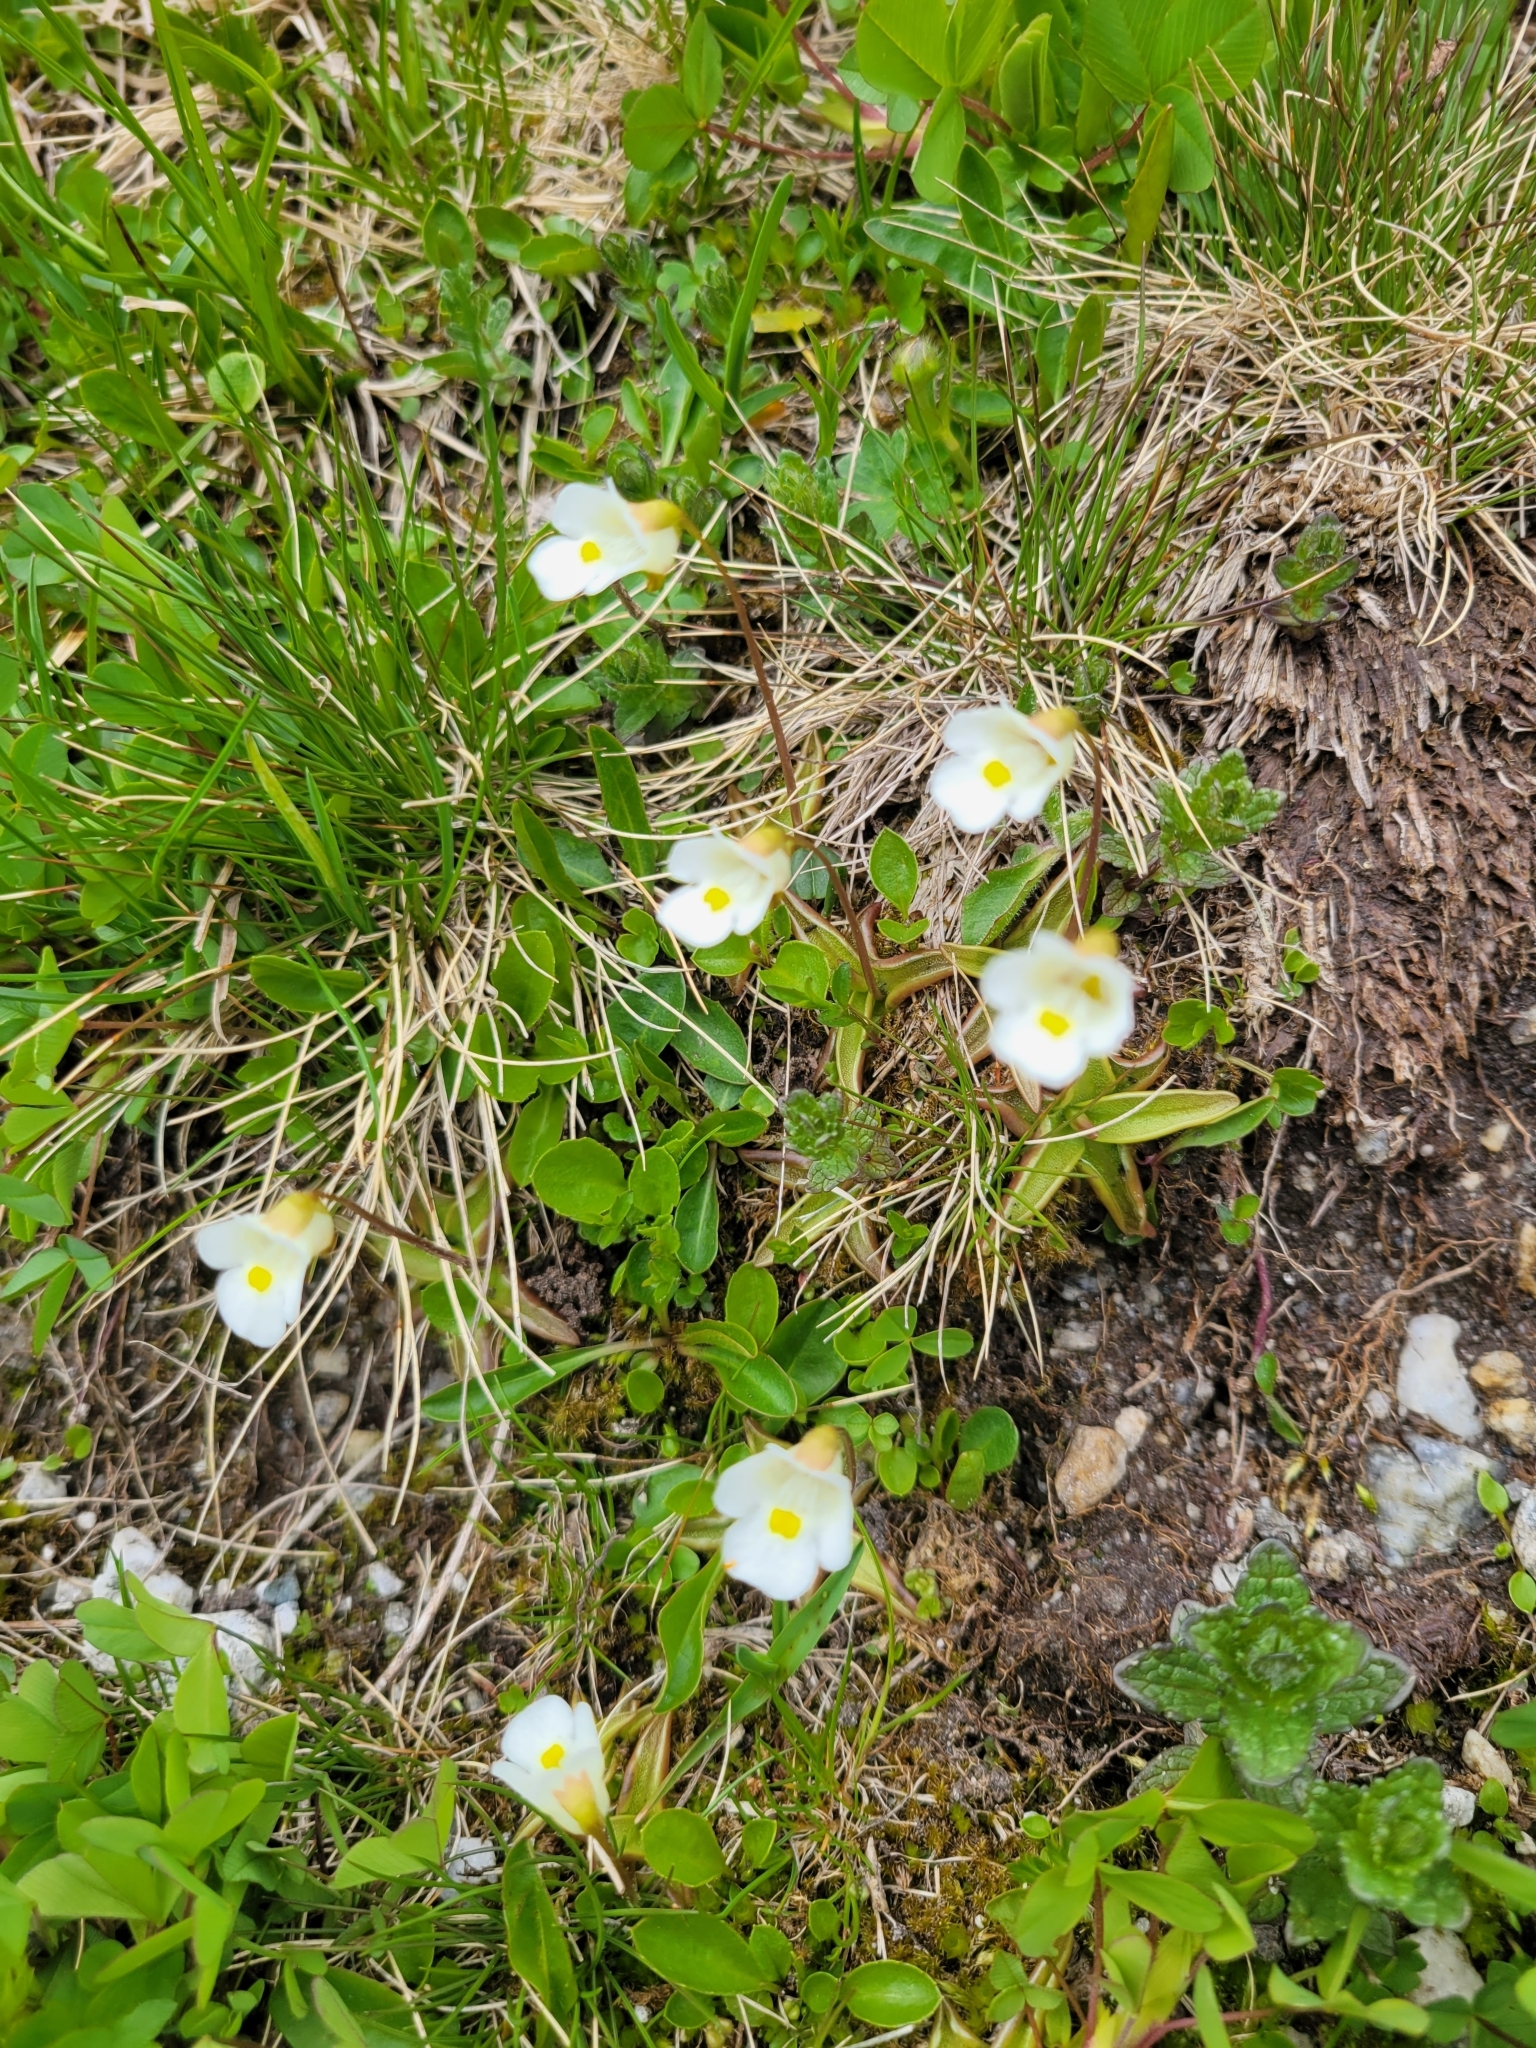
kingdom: Plantae
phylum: Tracheophyta
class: Magnoliopsida
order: Lamiales
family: Lentibulariaceae
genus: Pinguicula
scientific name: Pinguicula alpina
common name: Alpine butterwort
